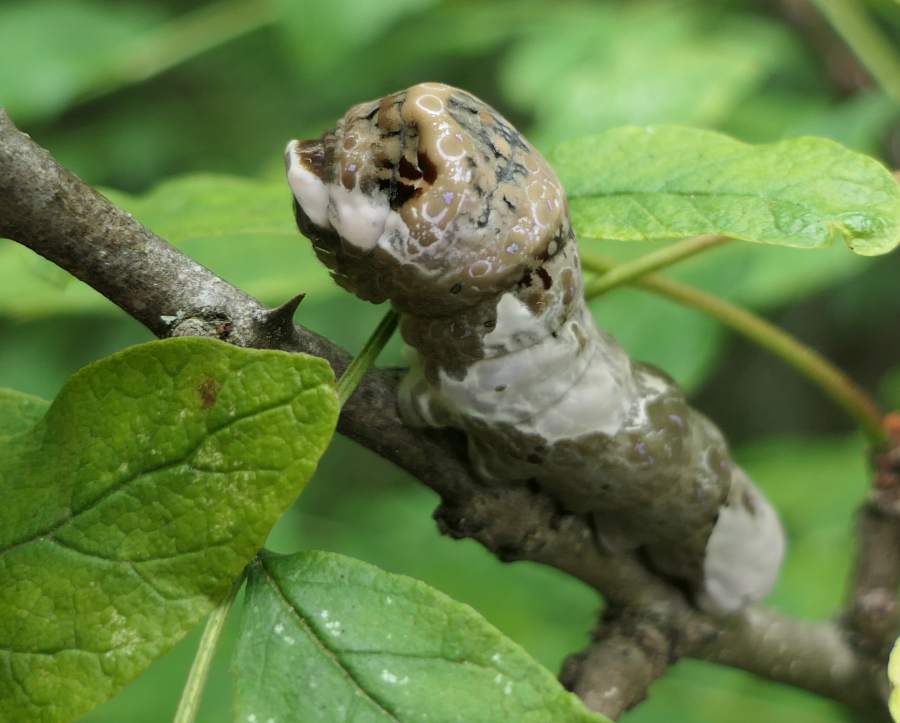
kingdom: Animalia
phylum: Arthropoda
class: Insecta
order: Lepidoptera
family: Papilionidae
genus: Papilio
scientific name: Papilio cresphontes
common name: Giant swallowtail
